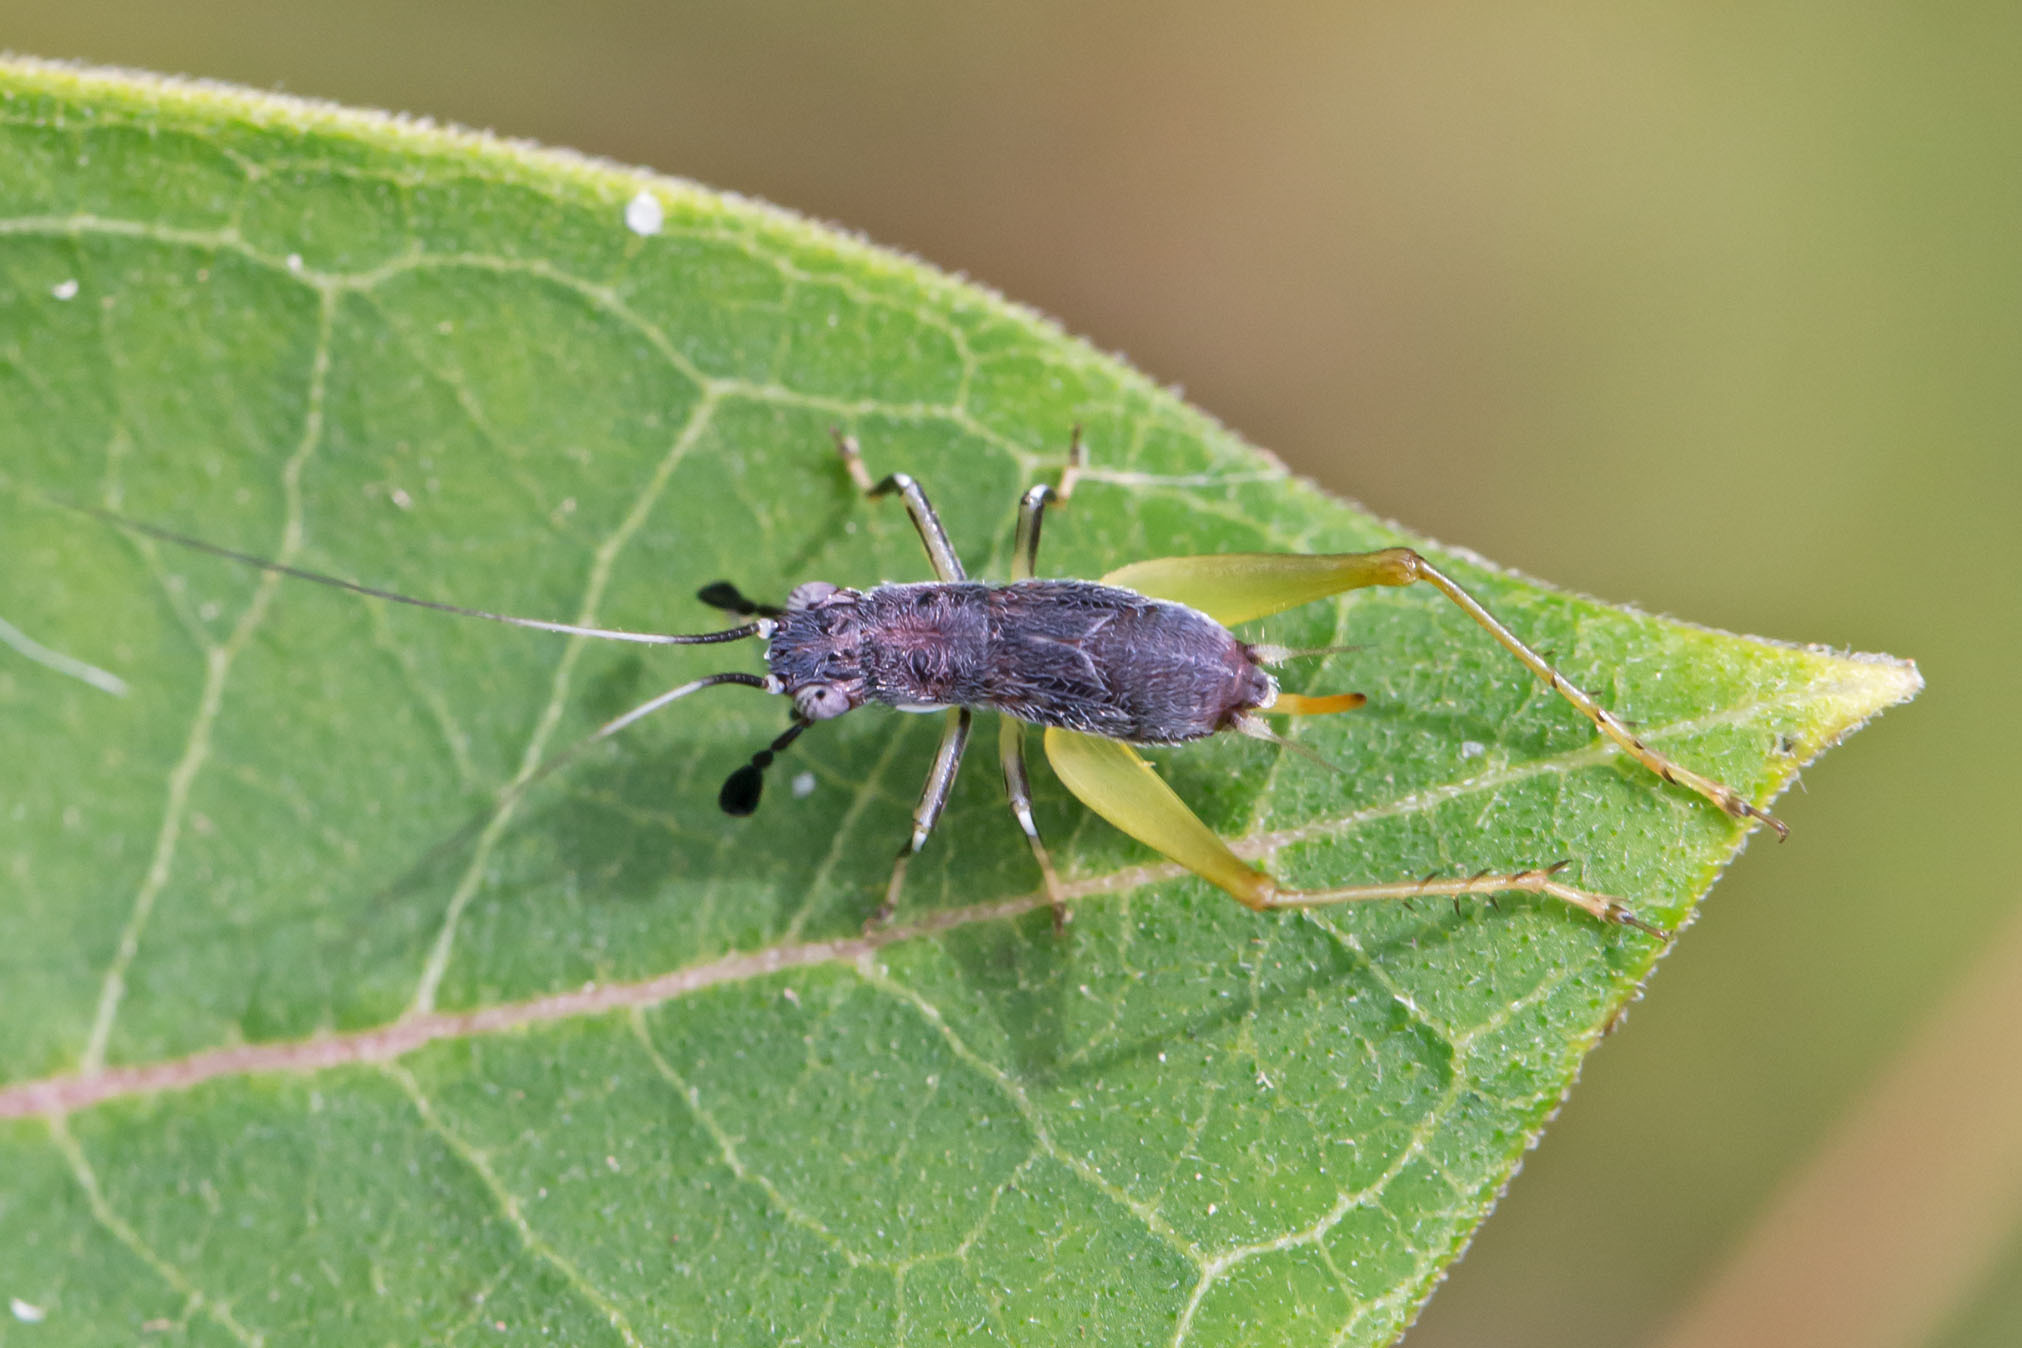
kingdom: Animalia
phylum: Arthropoda
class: Insecta
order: Orthoptera
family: Trigonidiidae
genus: Phyllopalpus
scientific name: Phyllopalpus pulchellus
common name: Handsome trig
